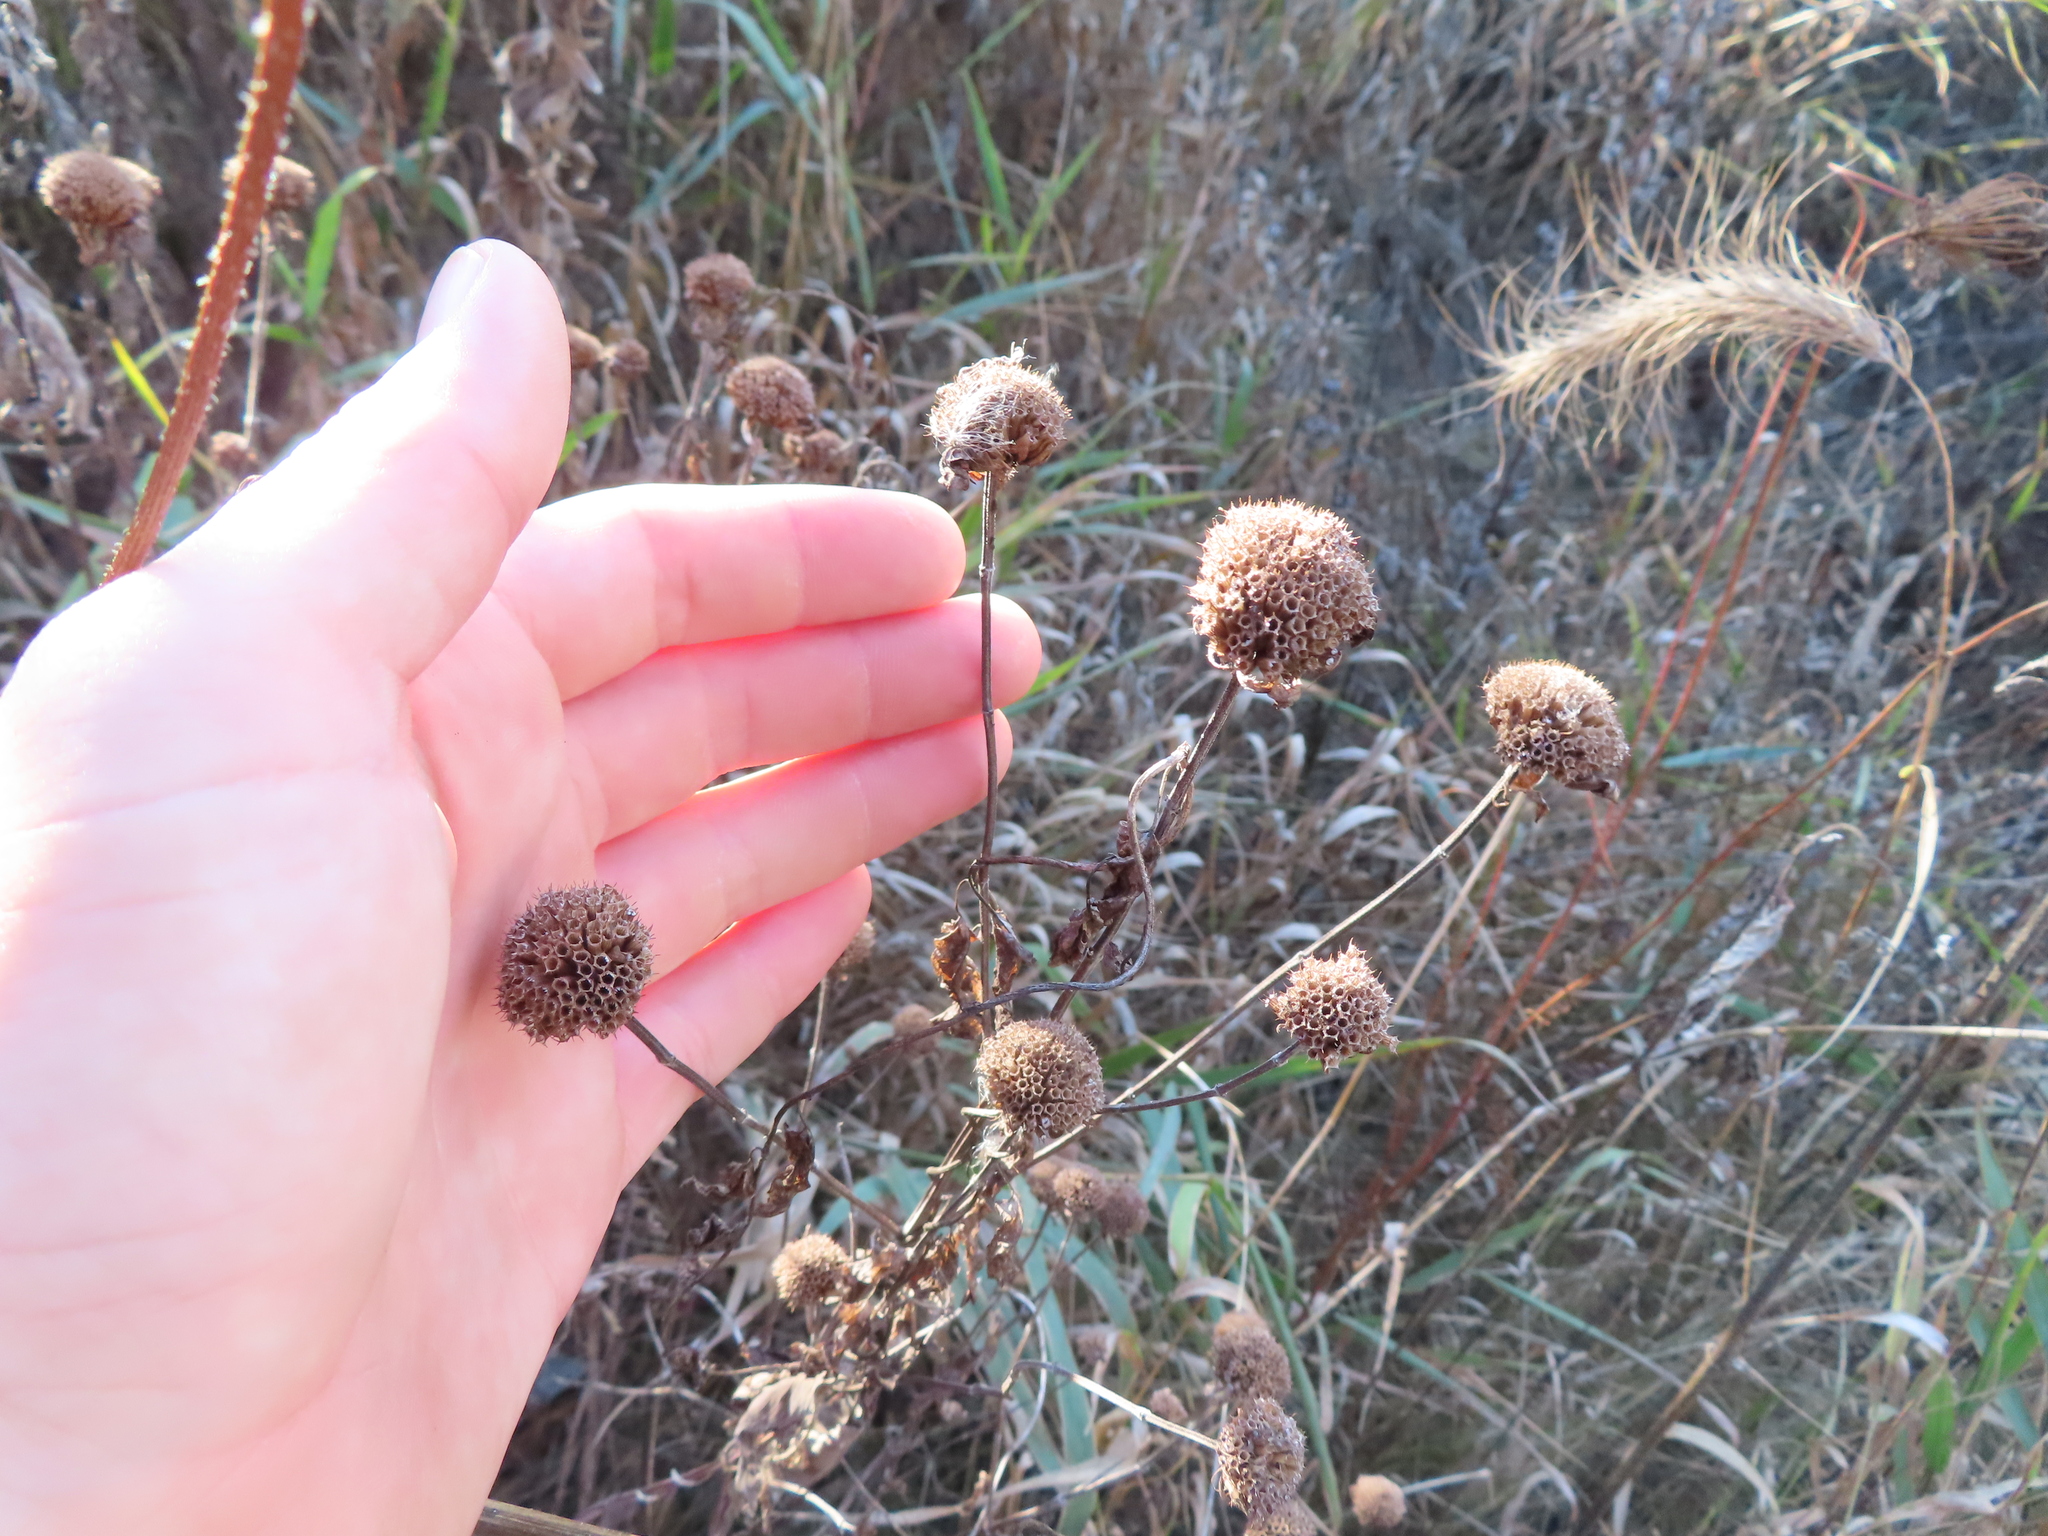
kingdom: Plantae
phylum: Tracheophyta
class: Magnoliopsida
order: Lamiales
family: Lamiaceae
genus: Monarda
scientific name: Monarda fistulosa
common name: Purple beebalm
